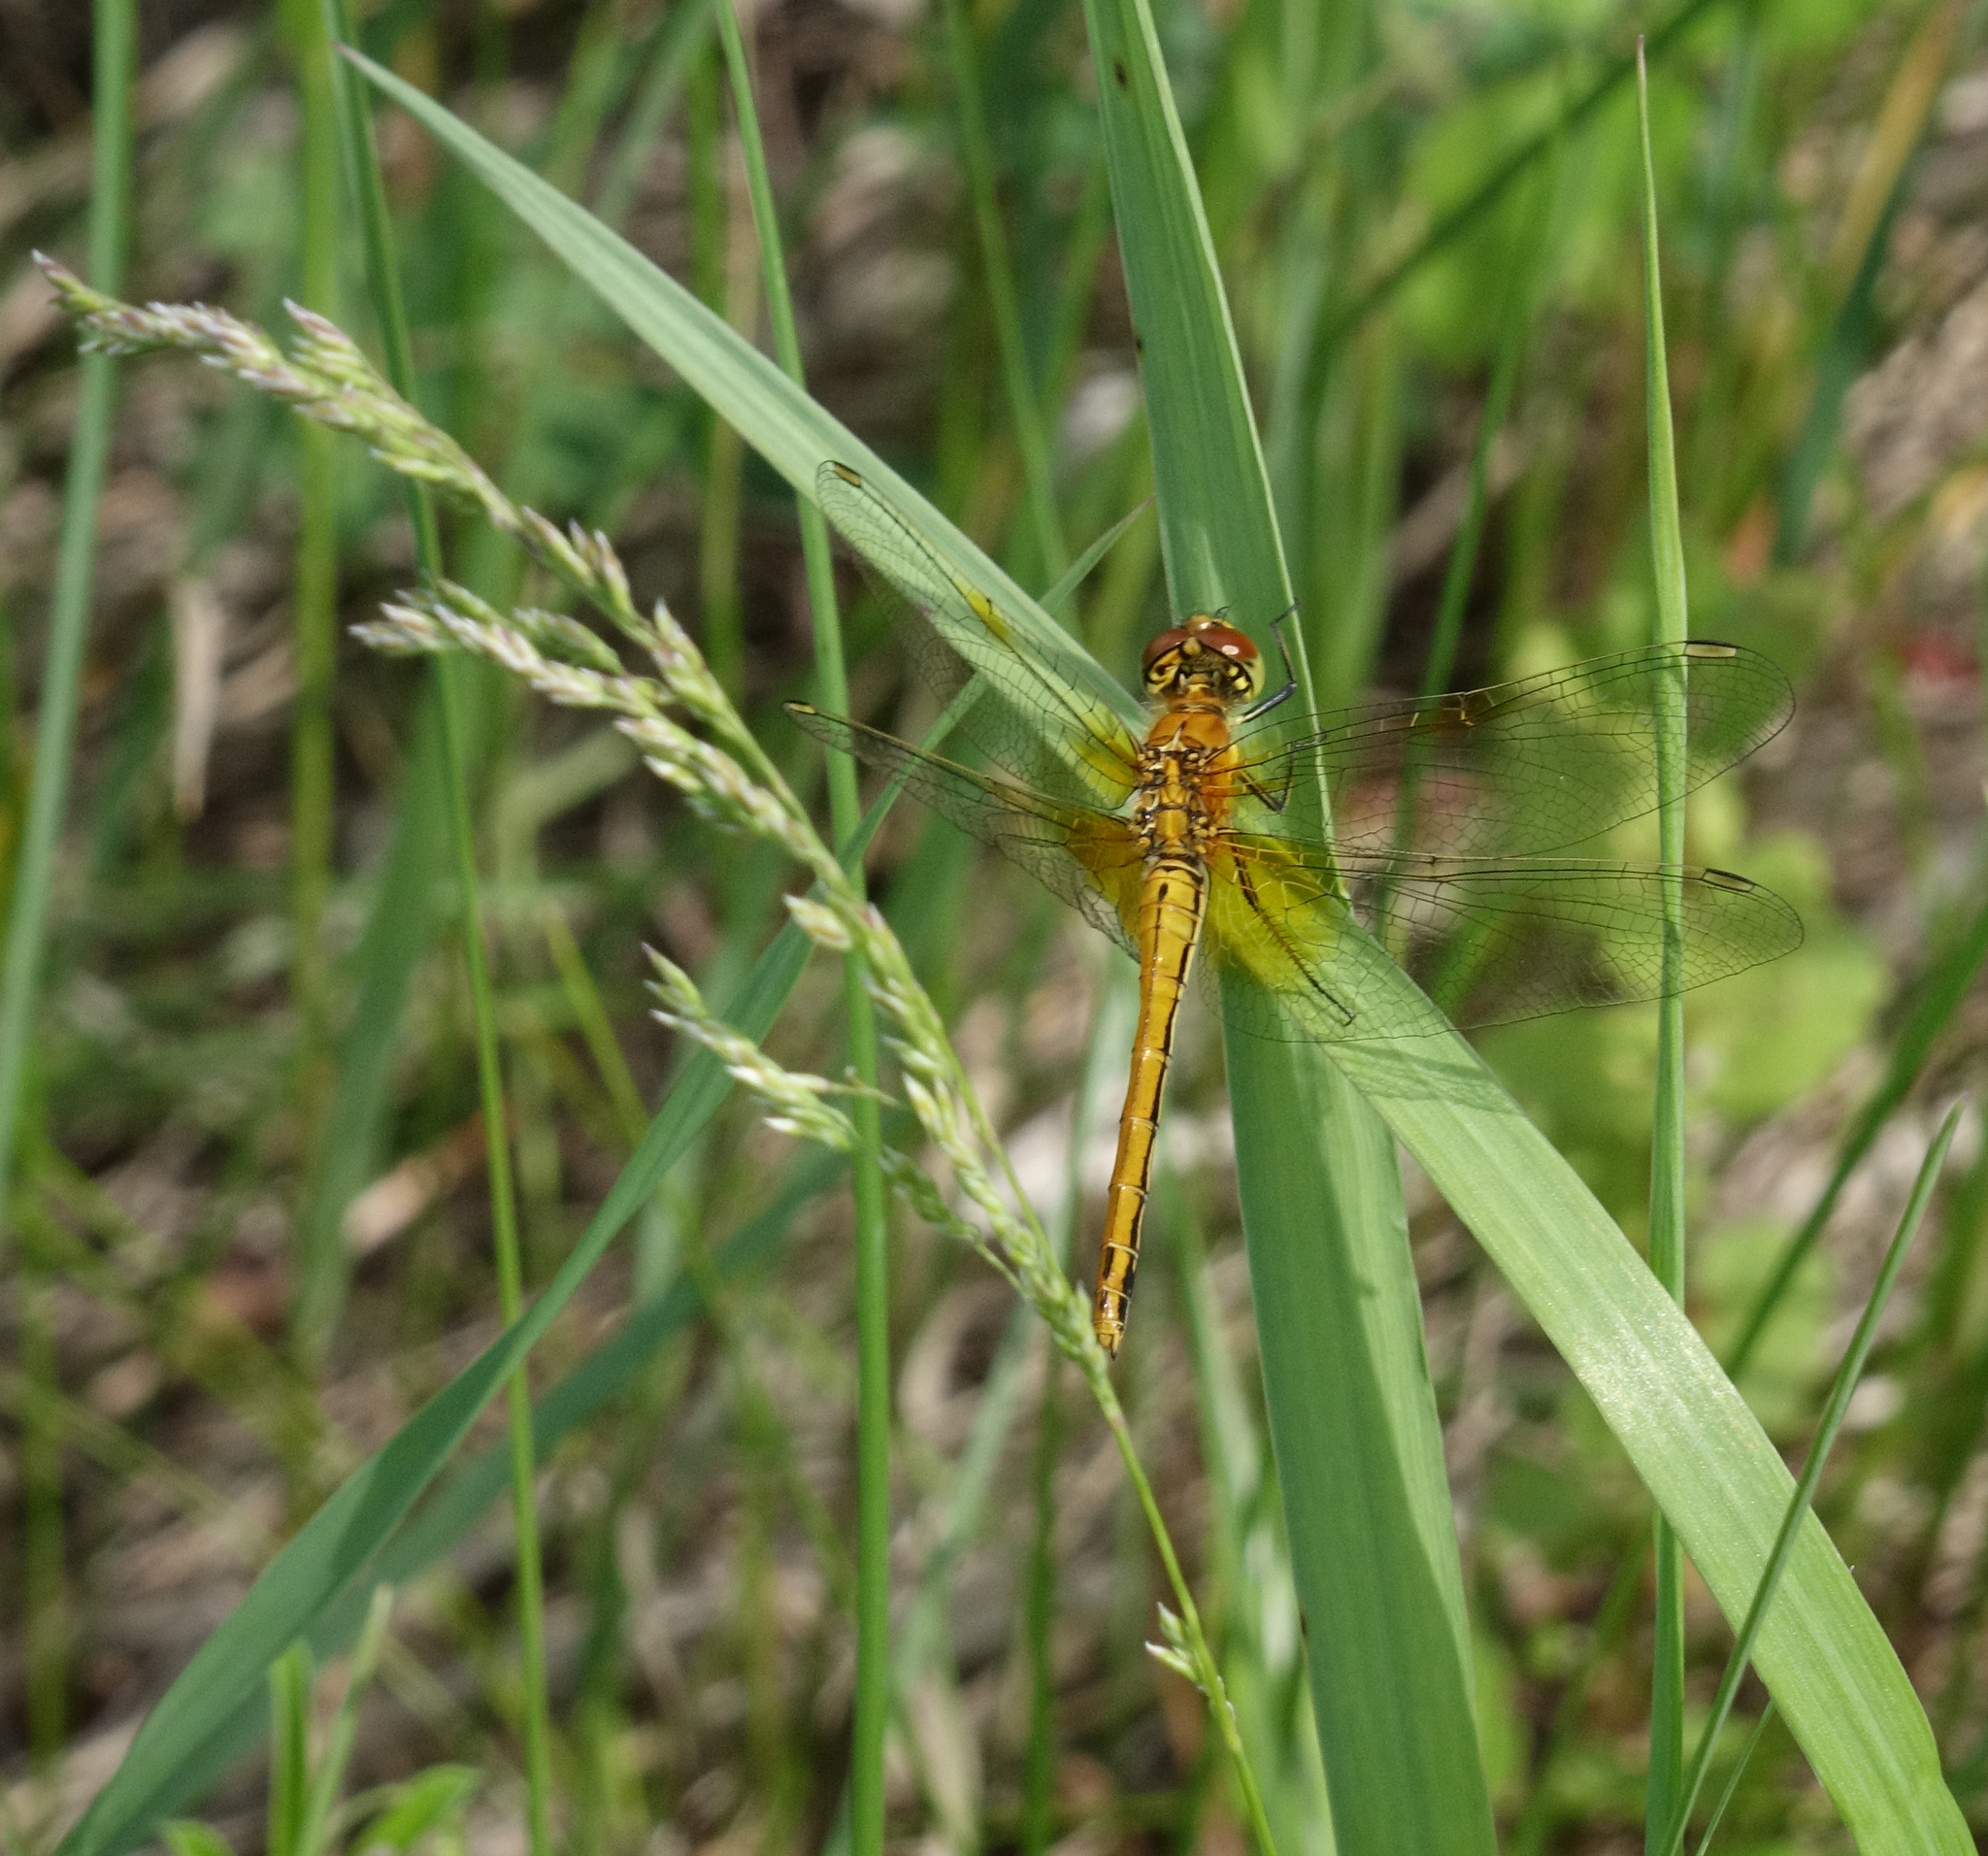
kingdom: Animalia
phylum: Arthropoda
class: Insecta
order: Odonata
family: Libellulidae
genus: Sympetrum
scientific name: Sympetrum flaveolum
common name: Yellow-winged darter
